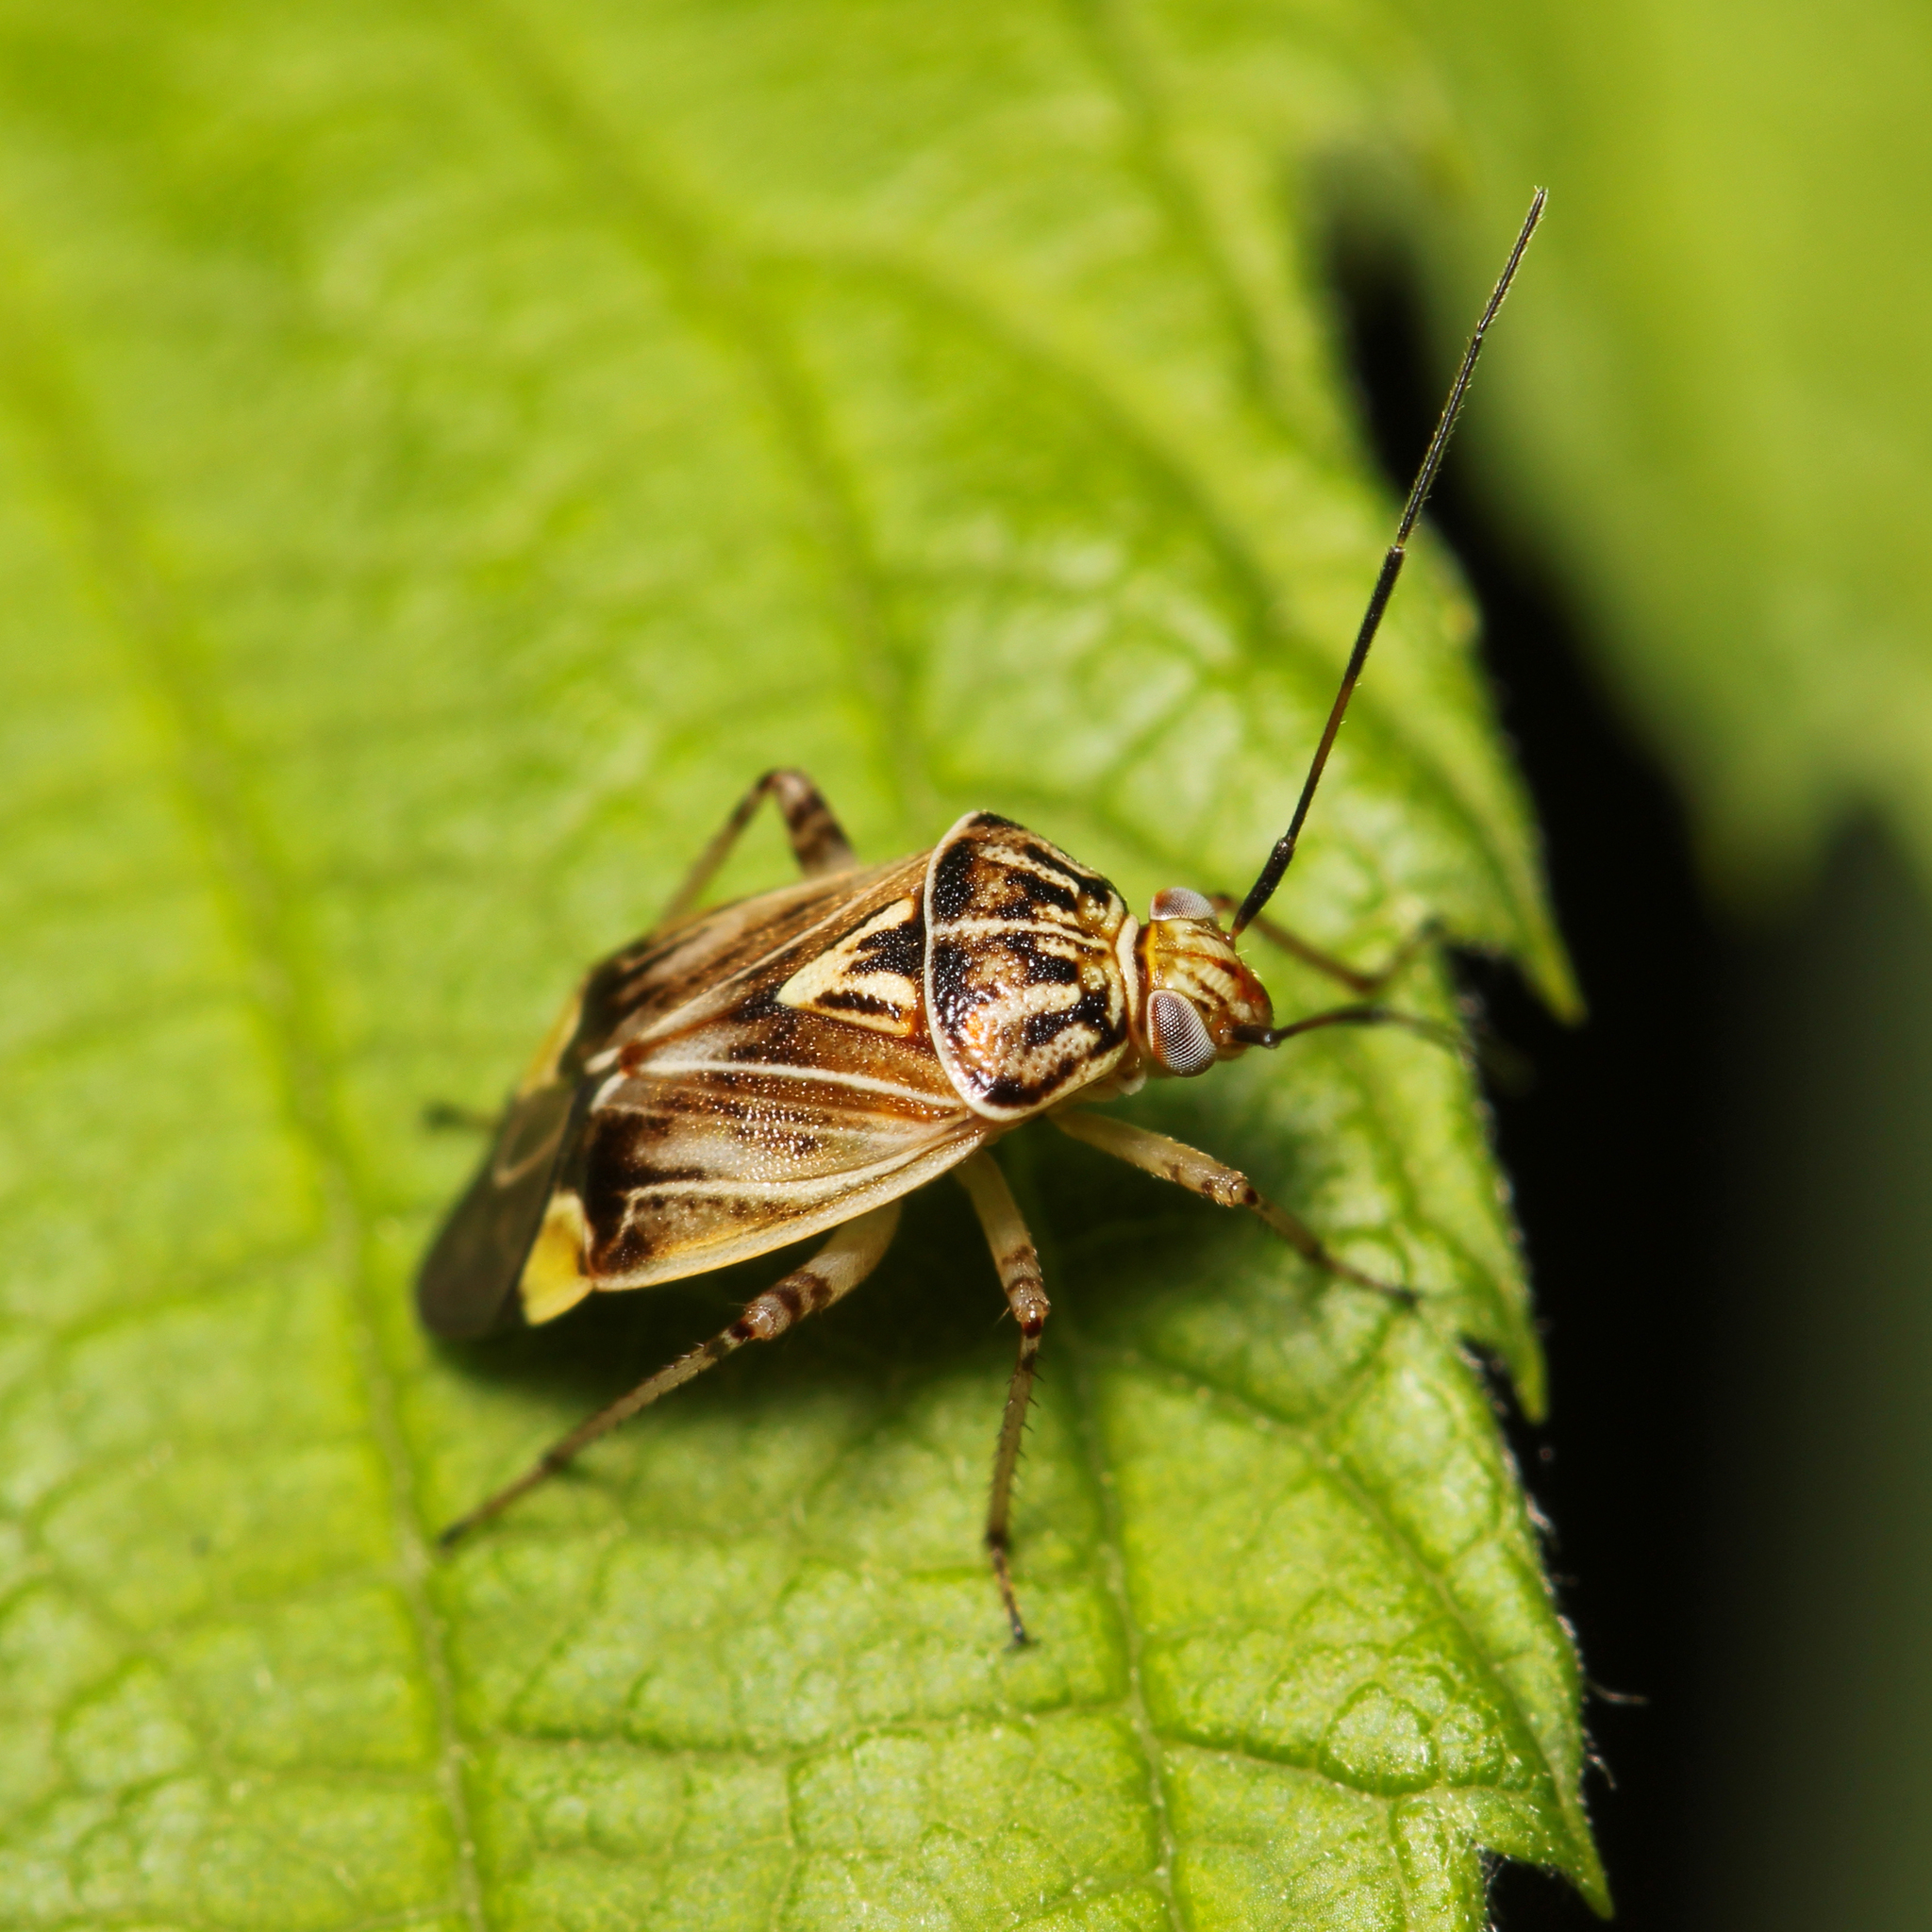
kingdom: Animalia
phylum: Arthropoda
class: Insecta
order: Hemiptera
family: Miridae
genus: Lygus
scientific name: Lygus lineolaris
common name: North american tarnished plant bug
